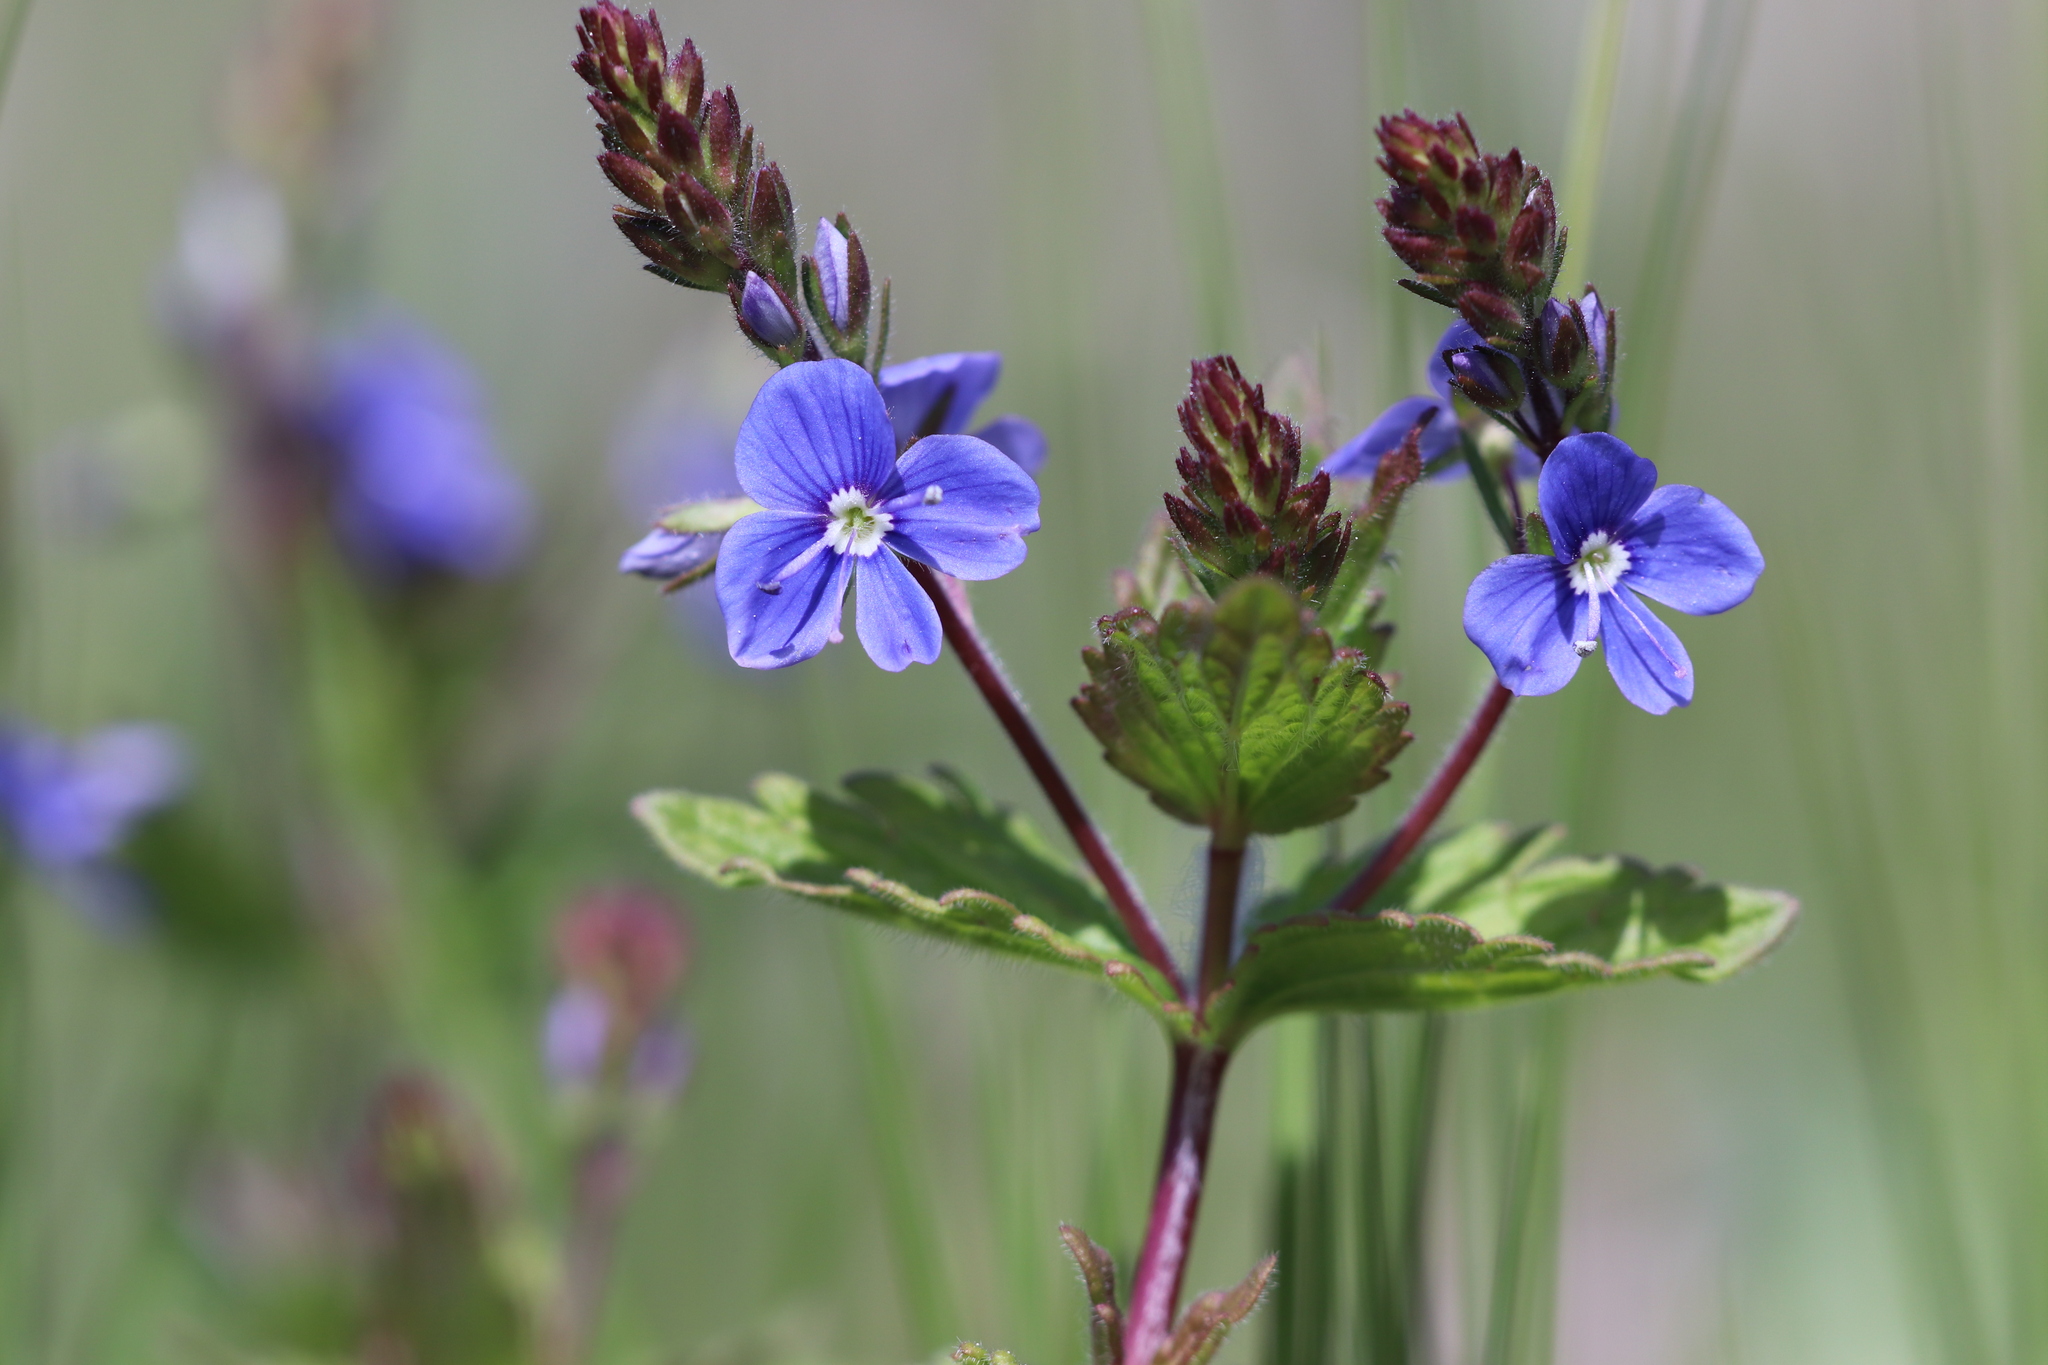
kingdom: Plantae
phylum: Tracheophyta
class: Magnoliopsida
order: Lamiales
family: Plantaginaceae
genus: Veronica
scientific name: Veronica chamaedrys
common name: Germander speedwell
